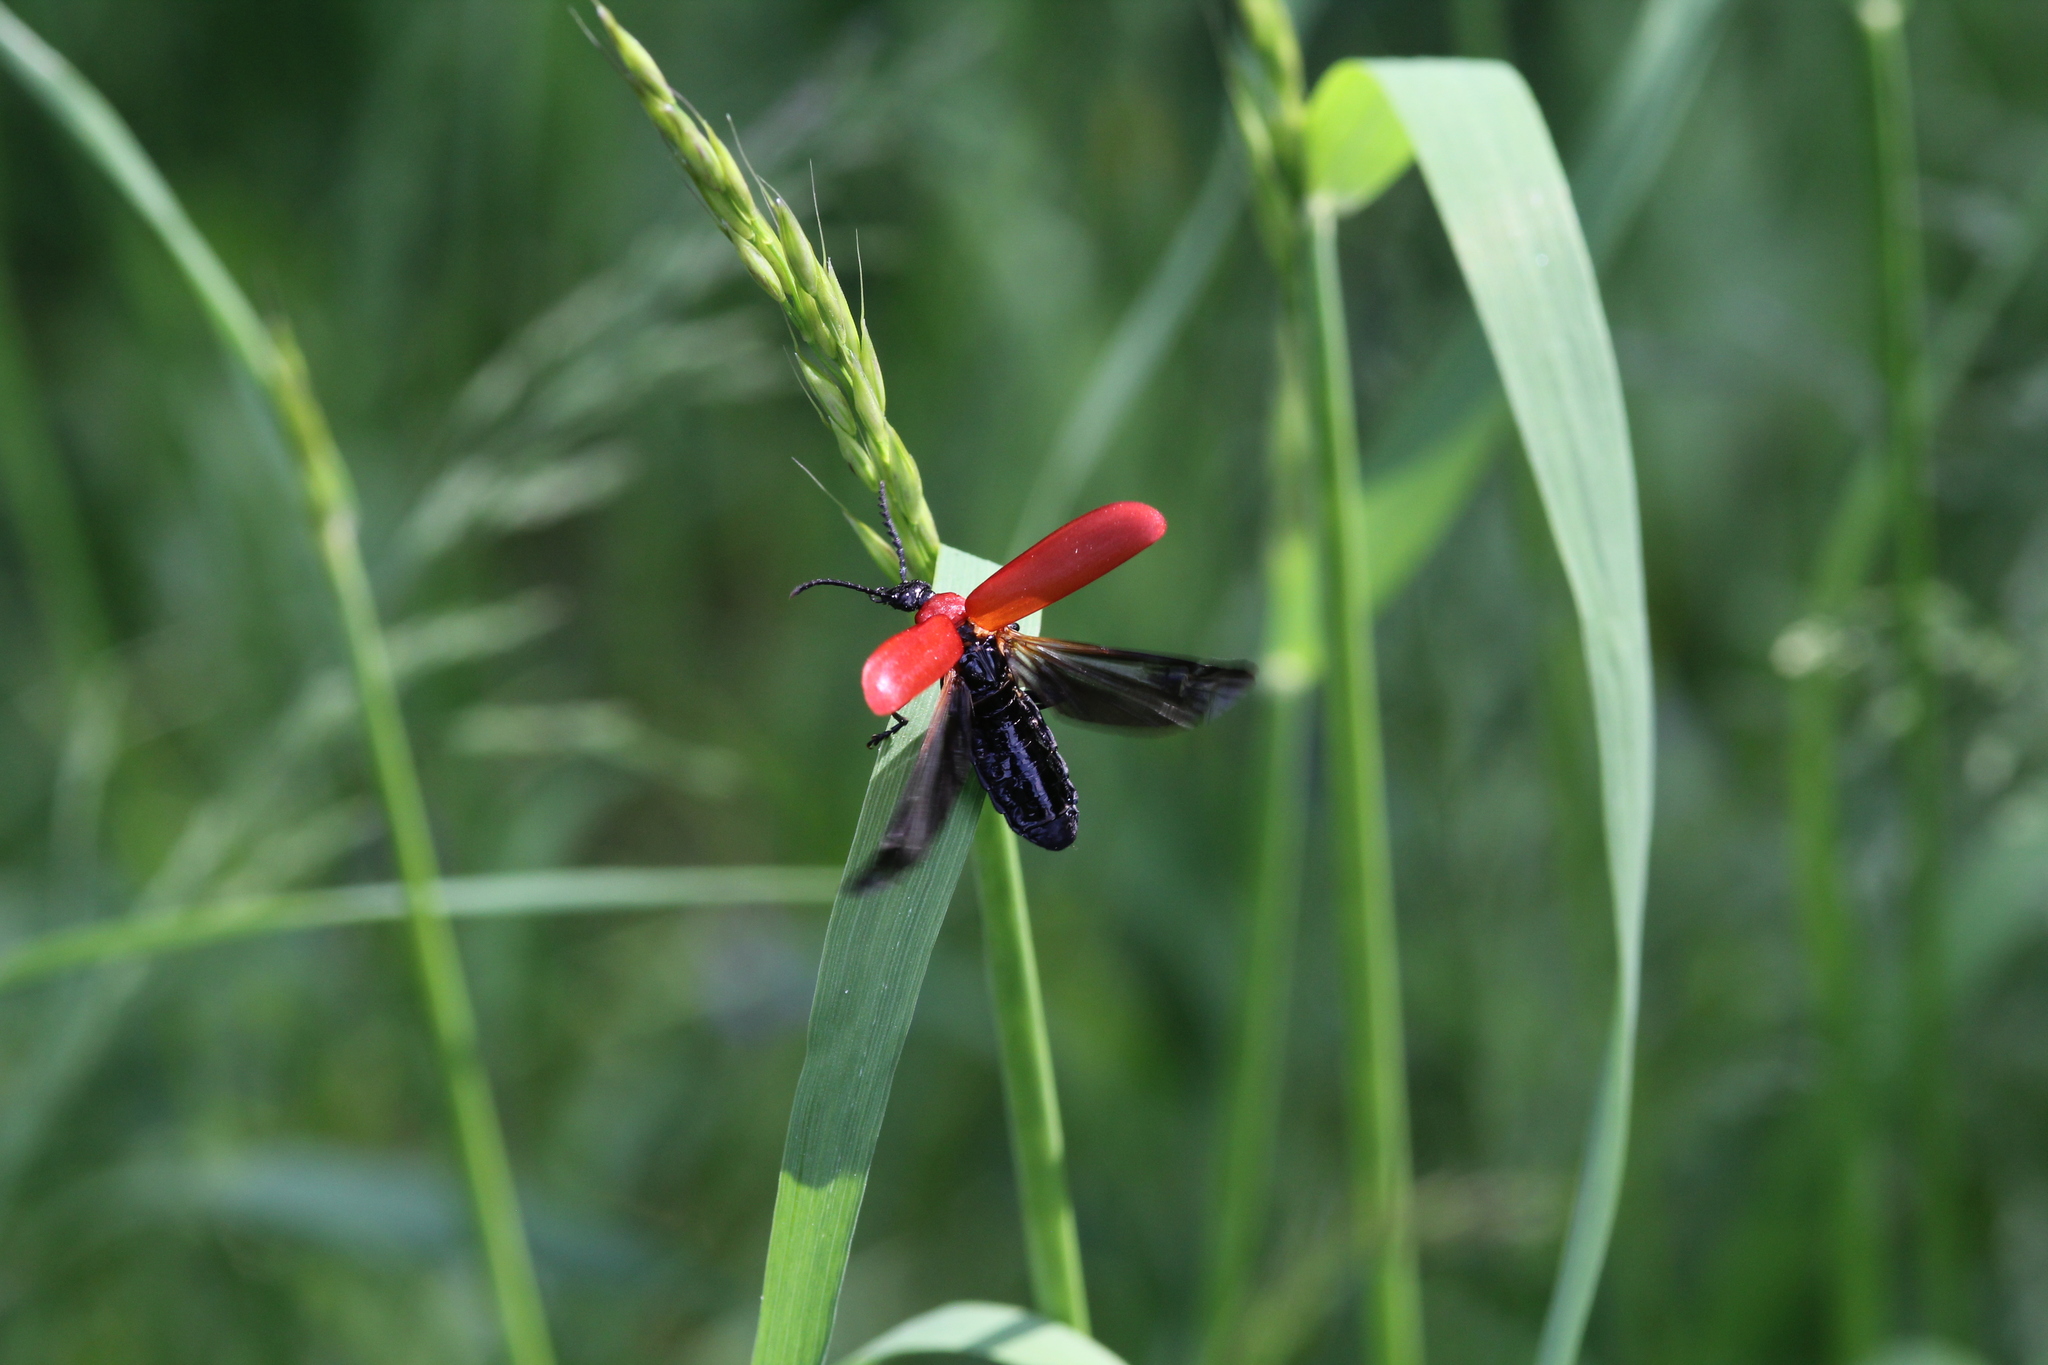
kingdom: Animalia
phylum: Arthropoda
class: Insecta
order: Coleoptera
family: Pyrochroidae
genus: Pyrochroa
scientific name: Pyrochroa coccinea
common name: Black-headed cardinal beetle
